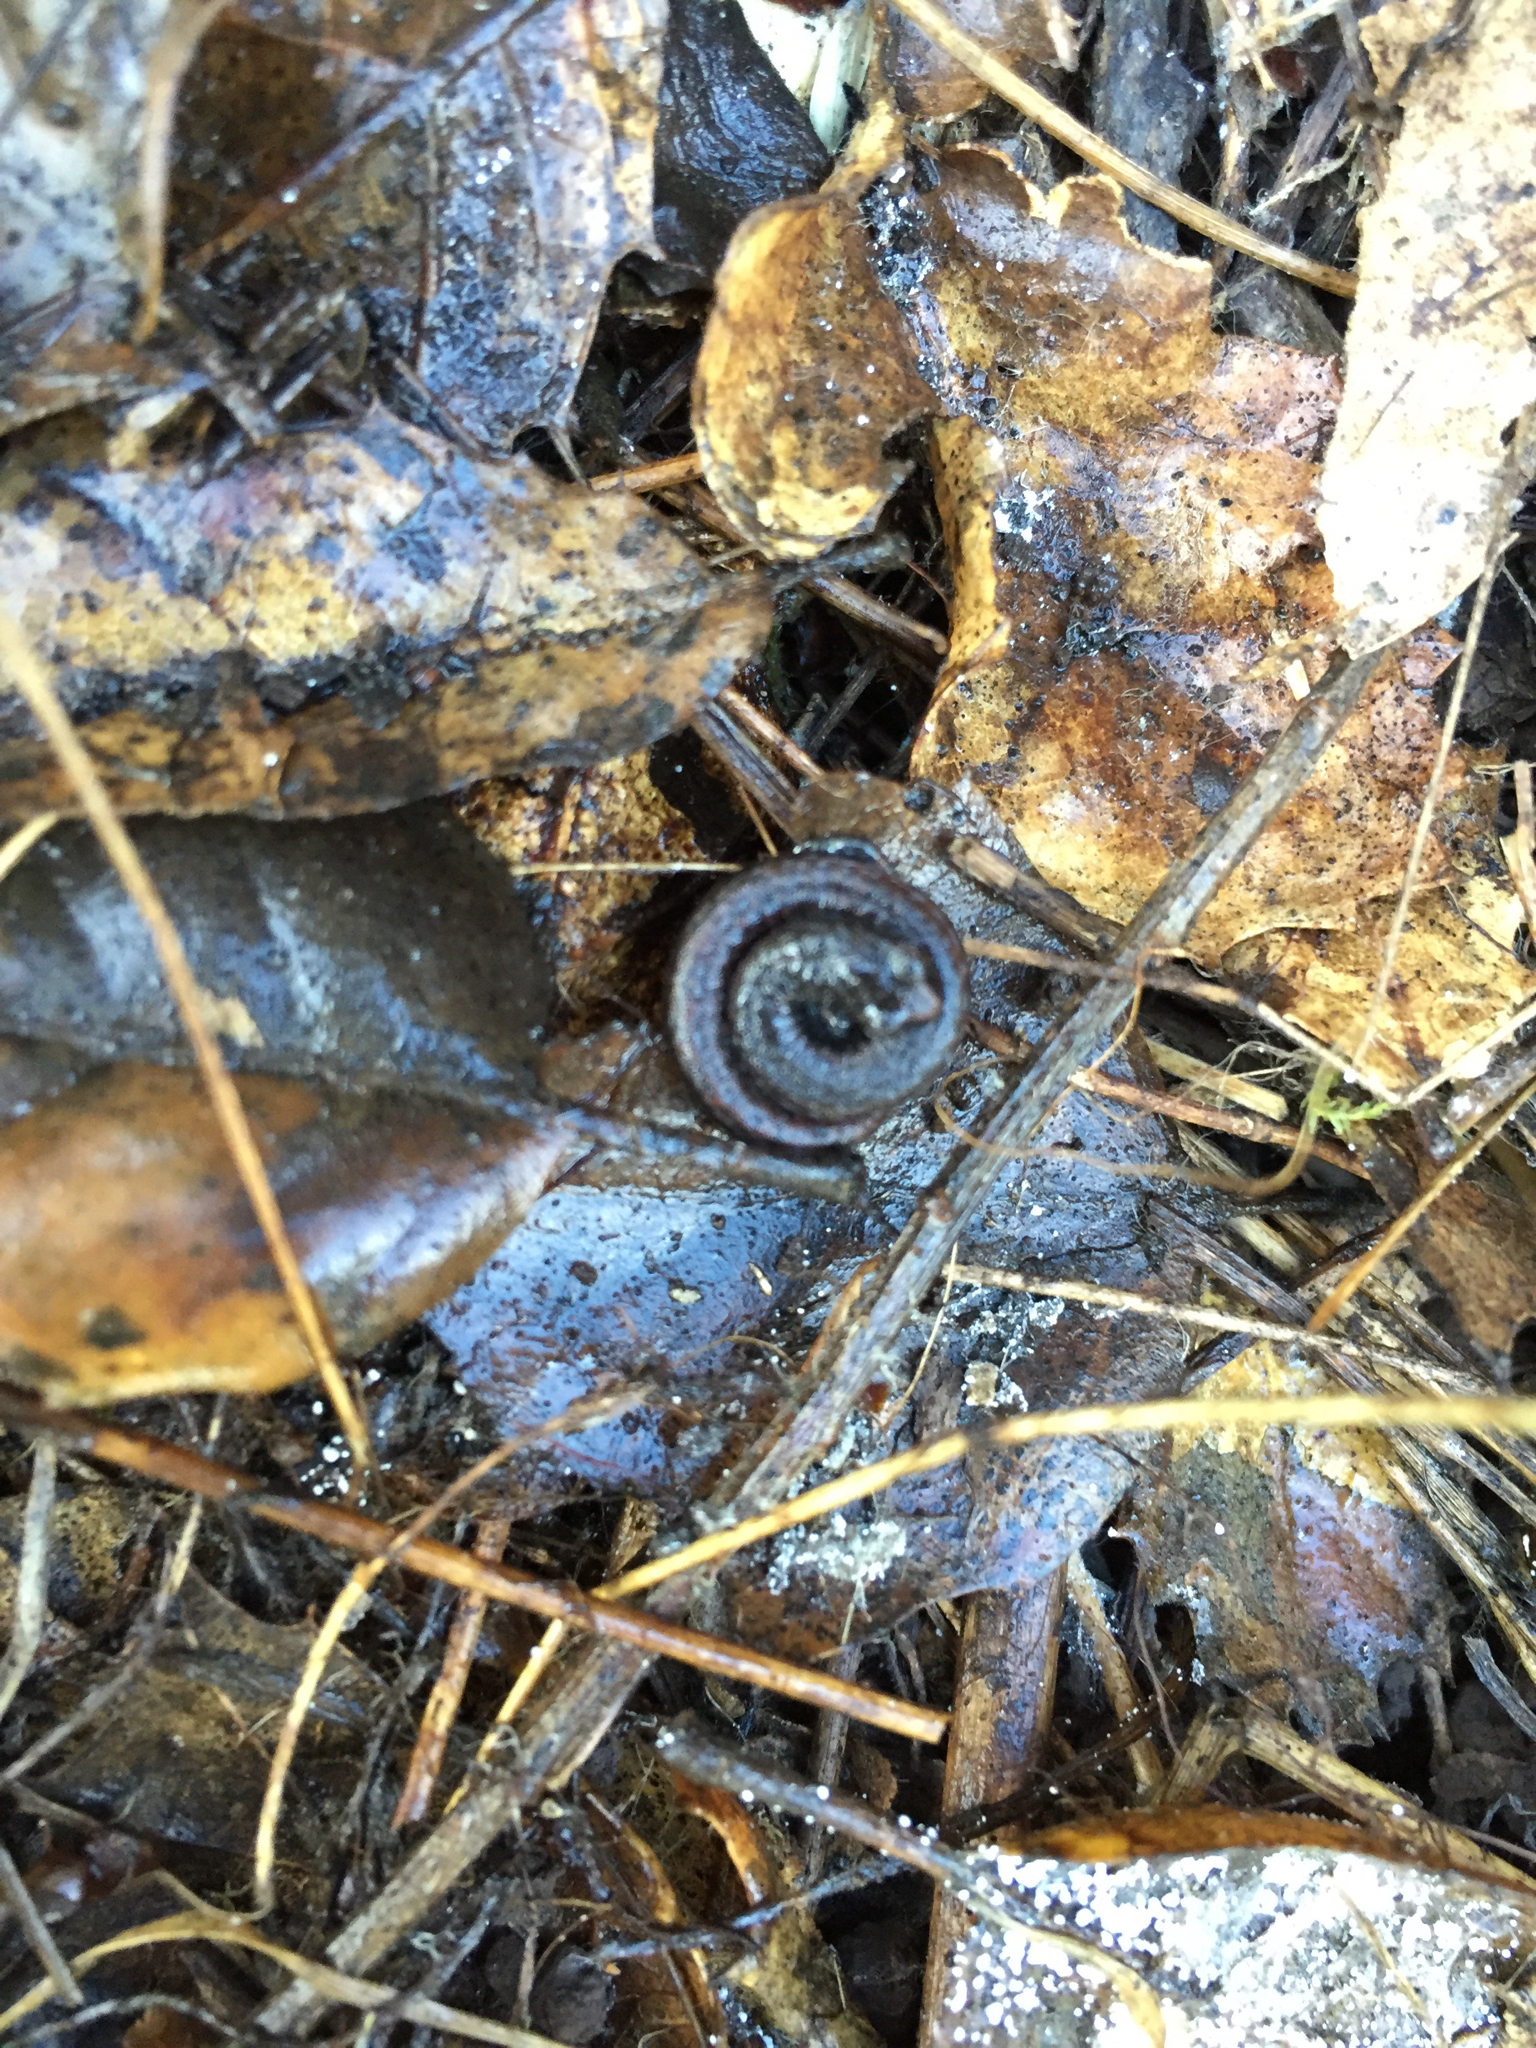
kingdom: Animalia
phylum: Chordata
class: Amphibia
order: Caudata
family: Plethodontidae
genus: Batrachoseps
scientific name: Batrachoseps attenuatus
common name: California slender salamander
